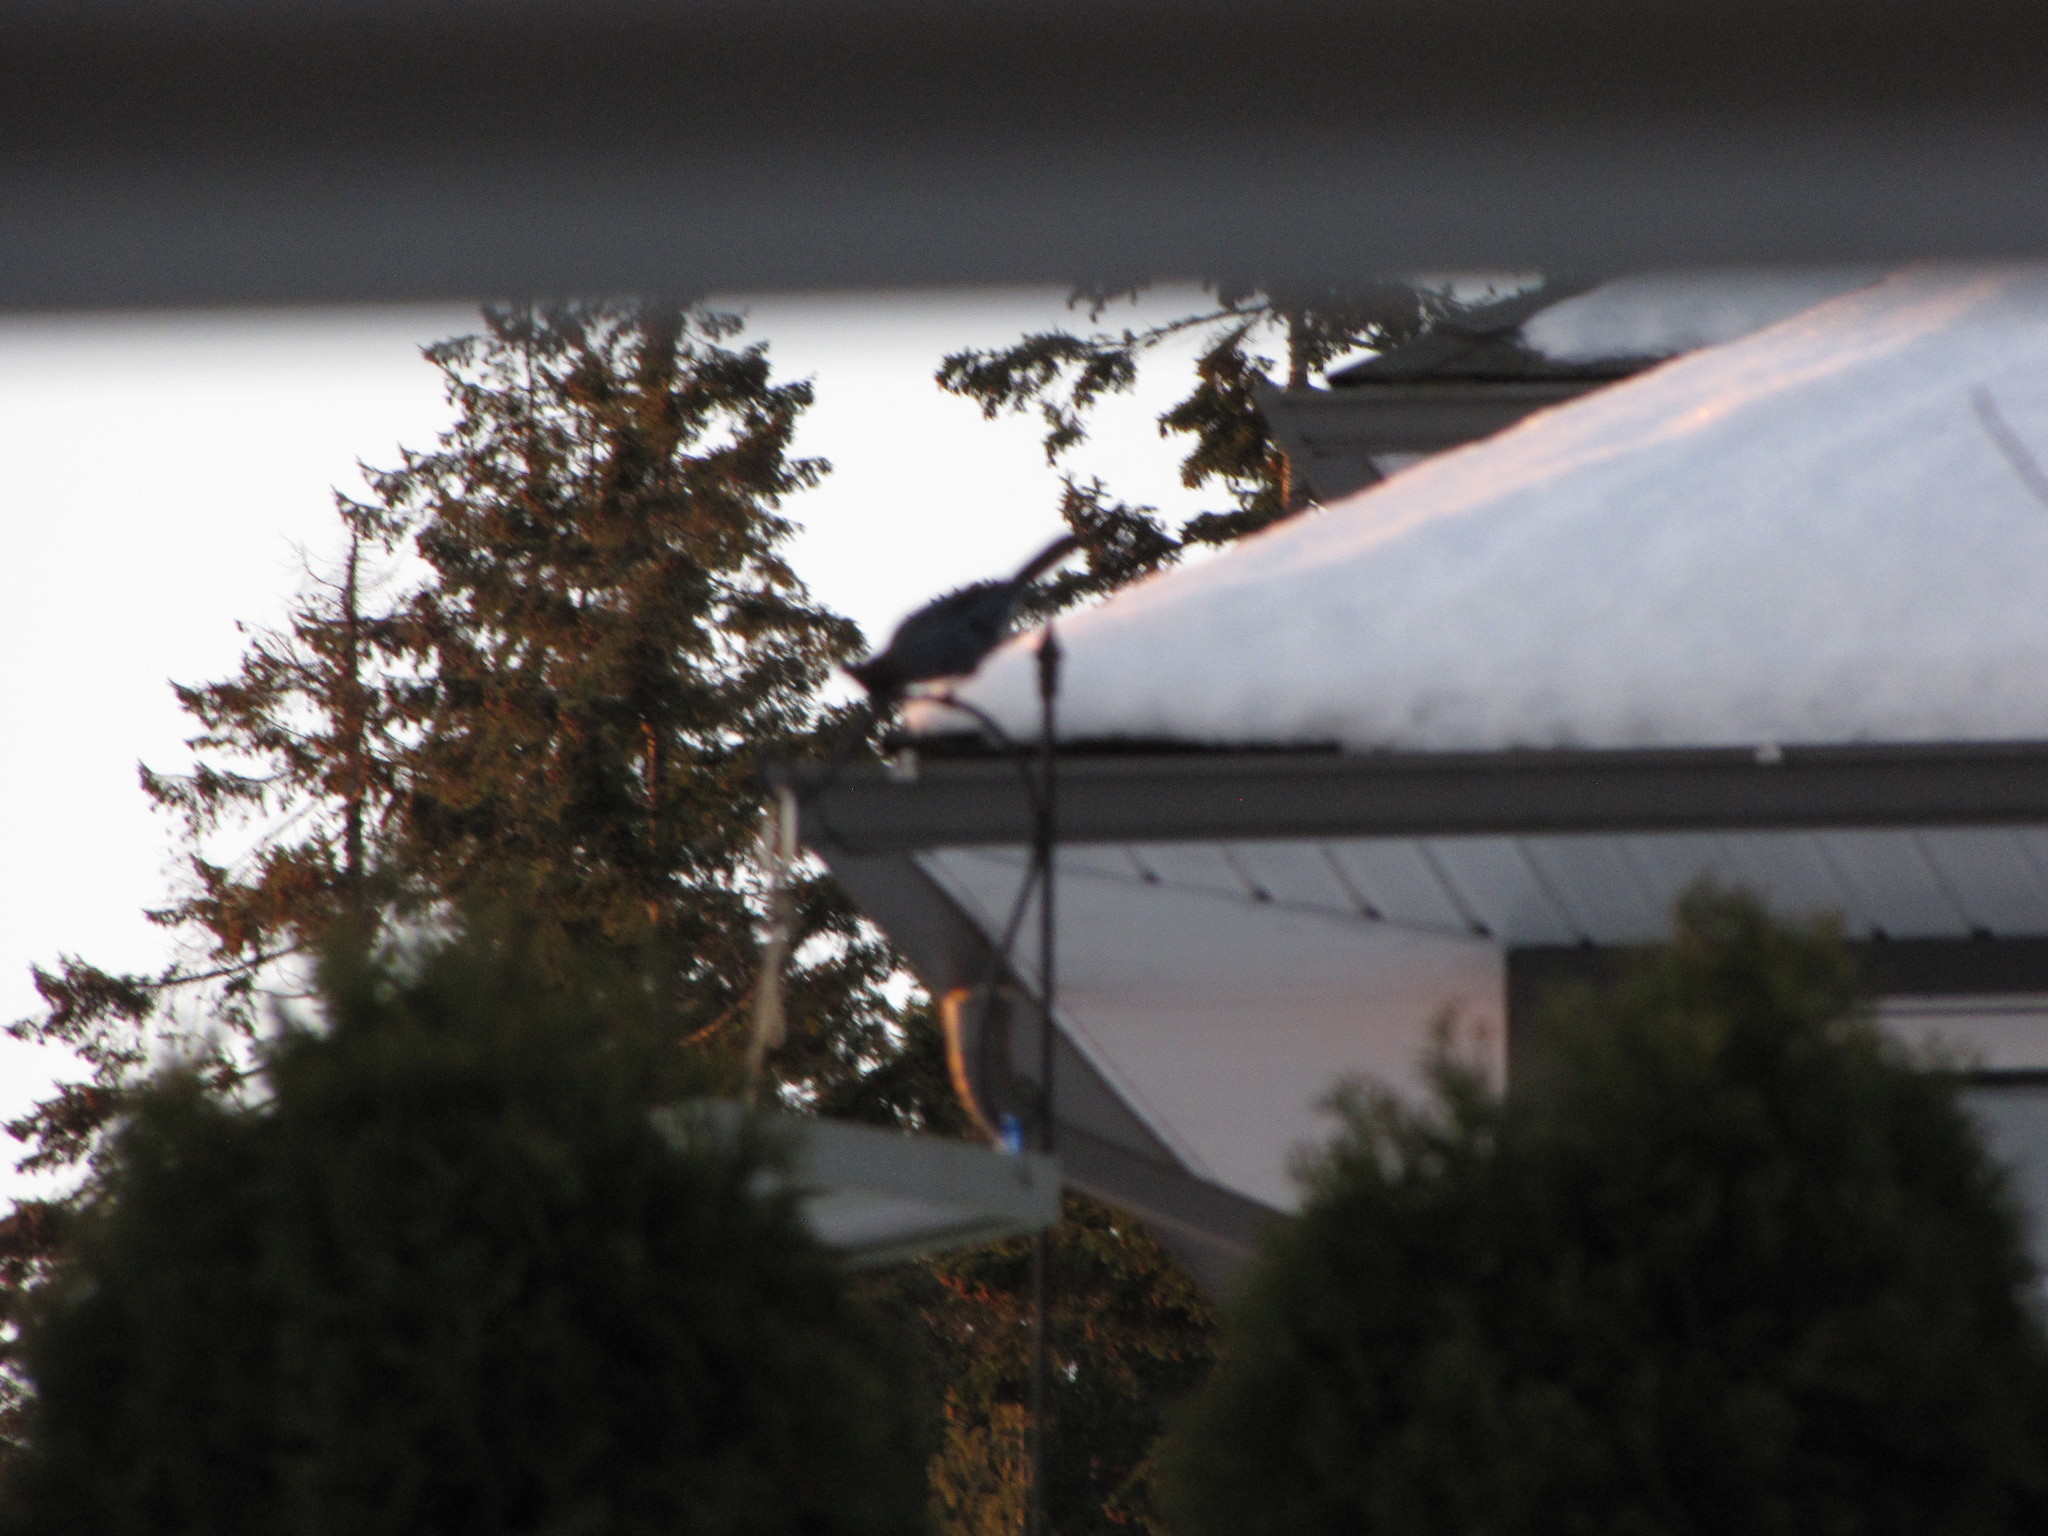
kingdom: Animalia
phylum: Chordata
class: Aves
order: Passeriformes
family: Corvidae
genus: Cyanocitta
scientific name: Cyanocitta stelleri
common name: Steller's jay
